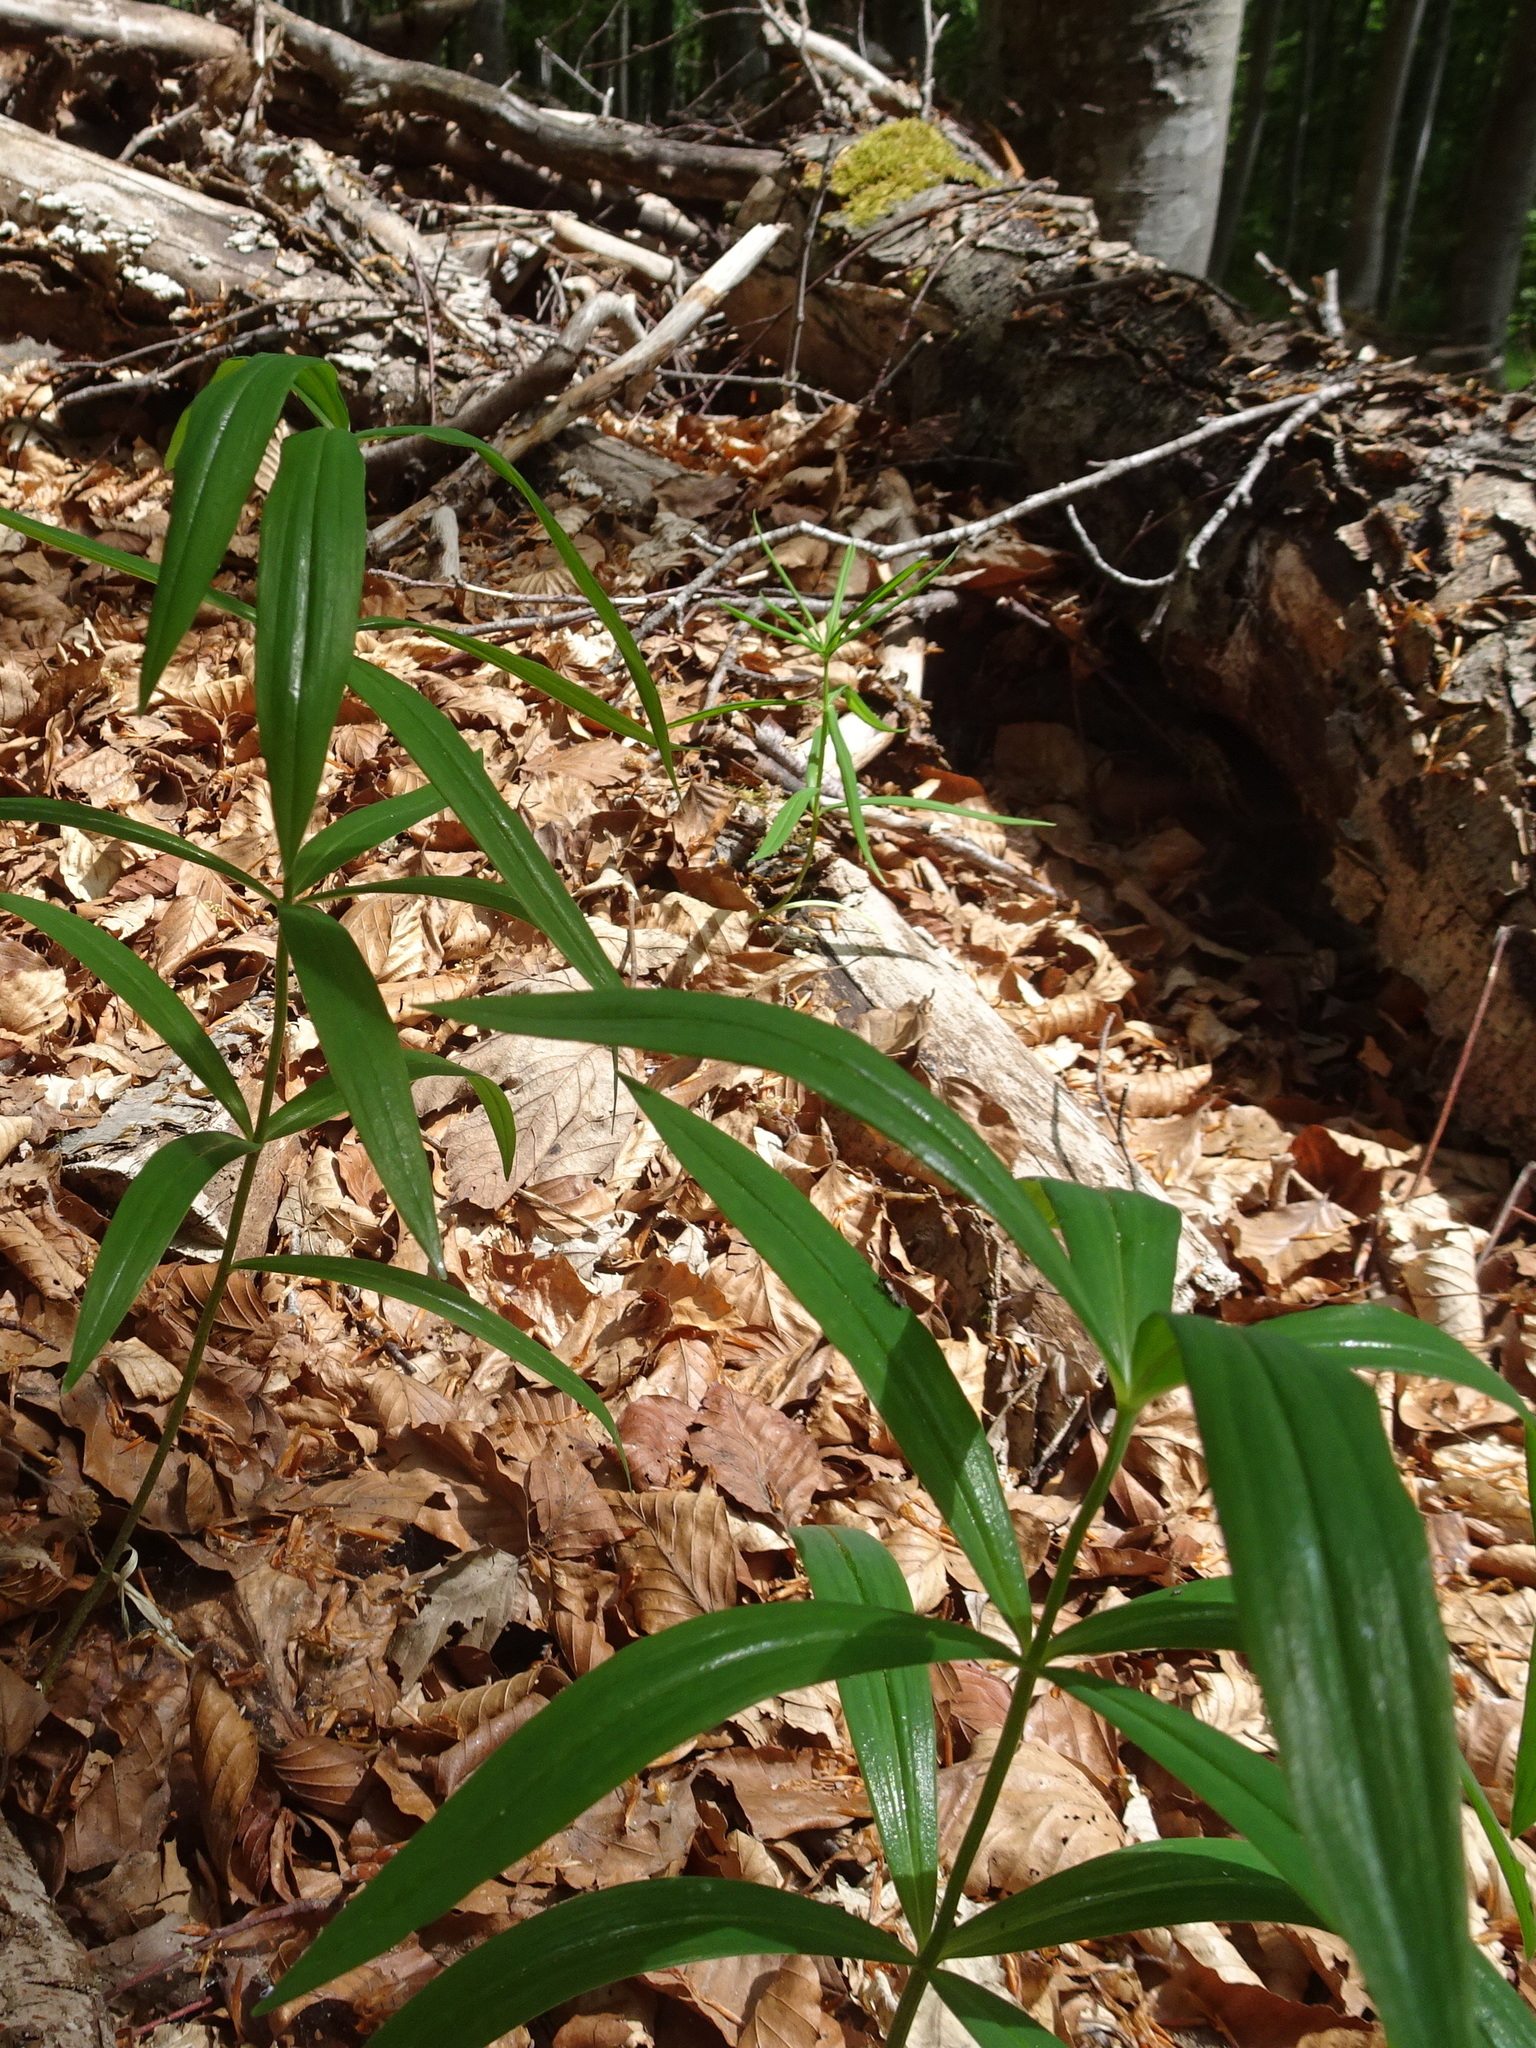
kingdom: Plantae
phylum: Tracheophyta
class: Liliopsida
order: Asparagales
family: Asparagaceae
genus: Polygonatum
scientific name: Polygonatum verticillatum
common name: Whorled solomon's-seal
